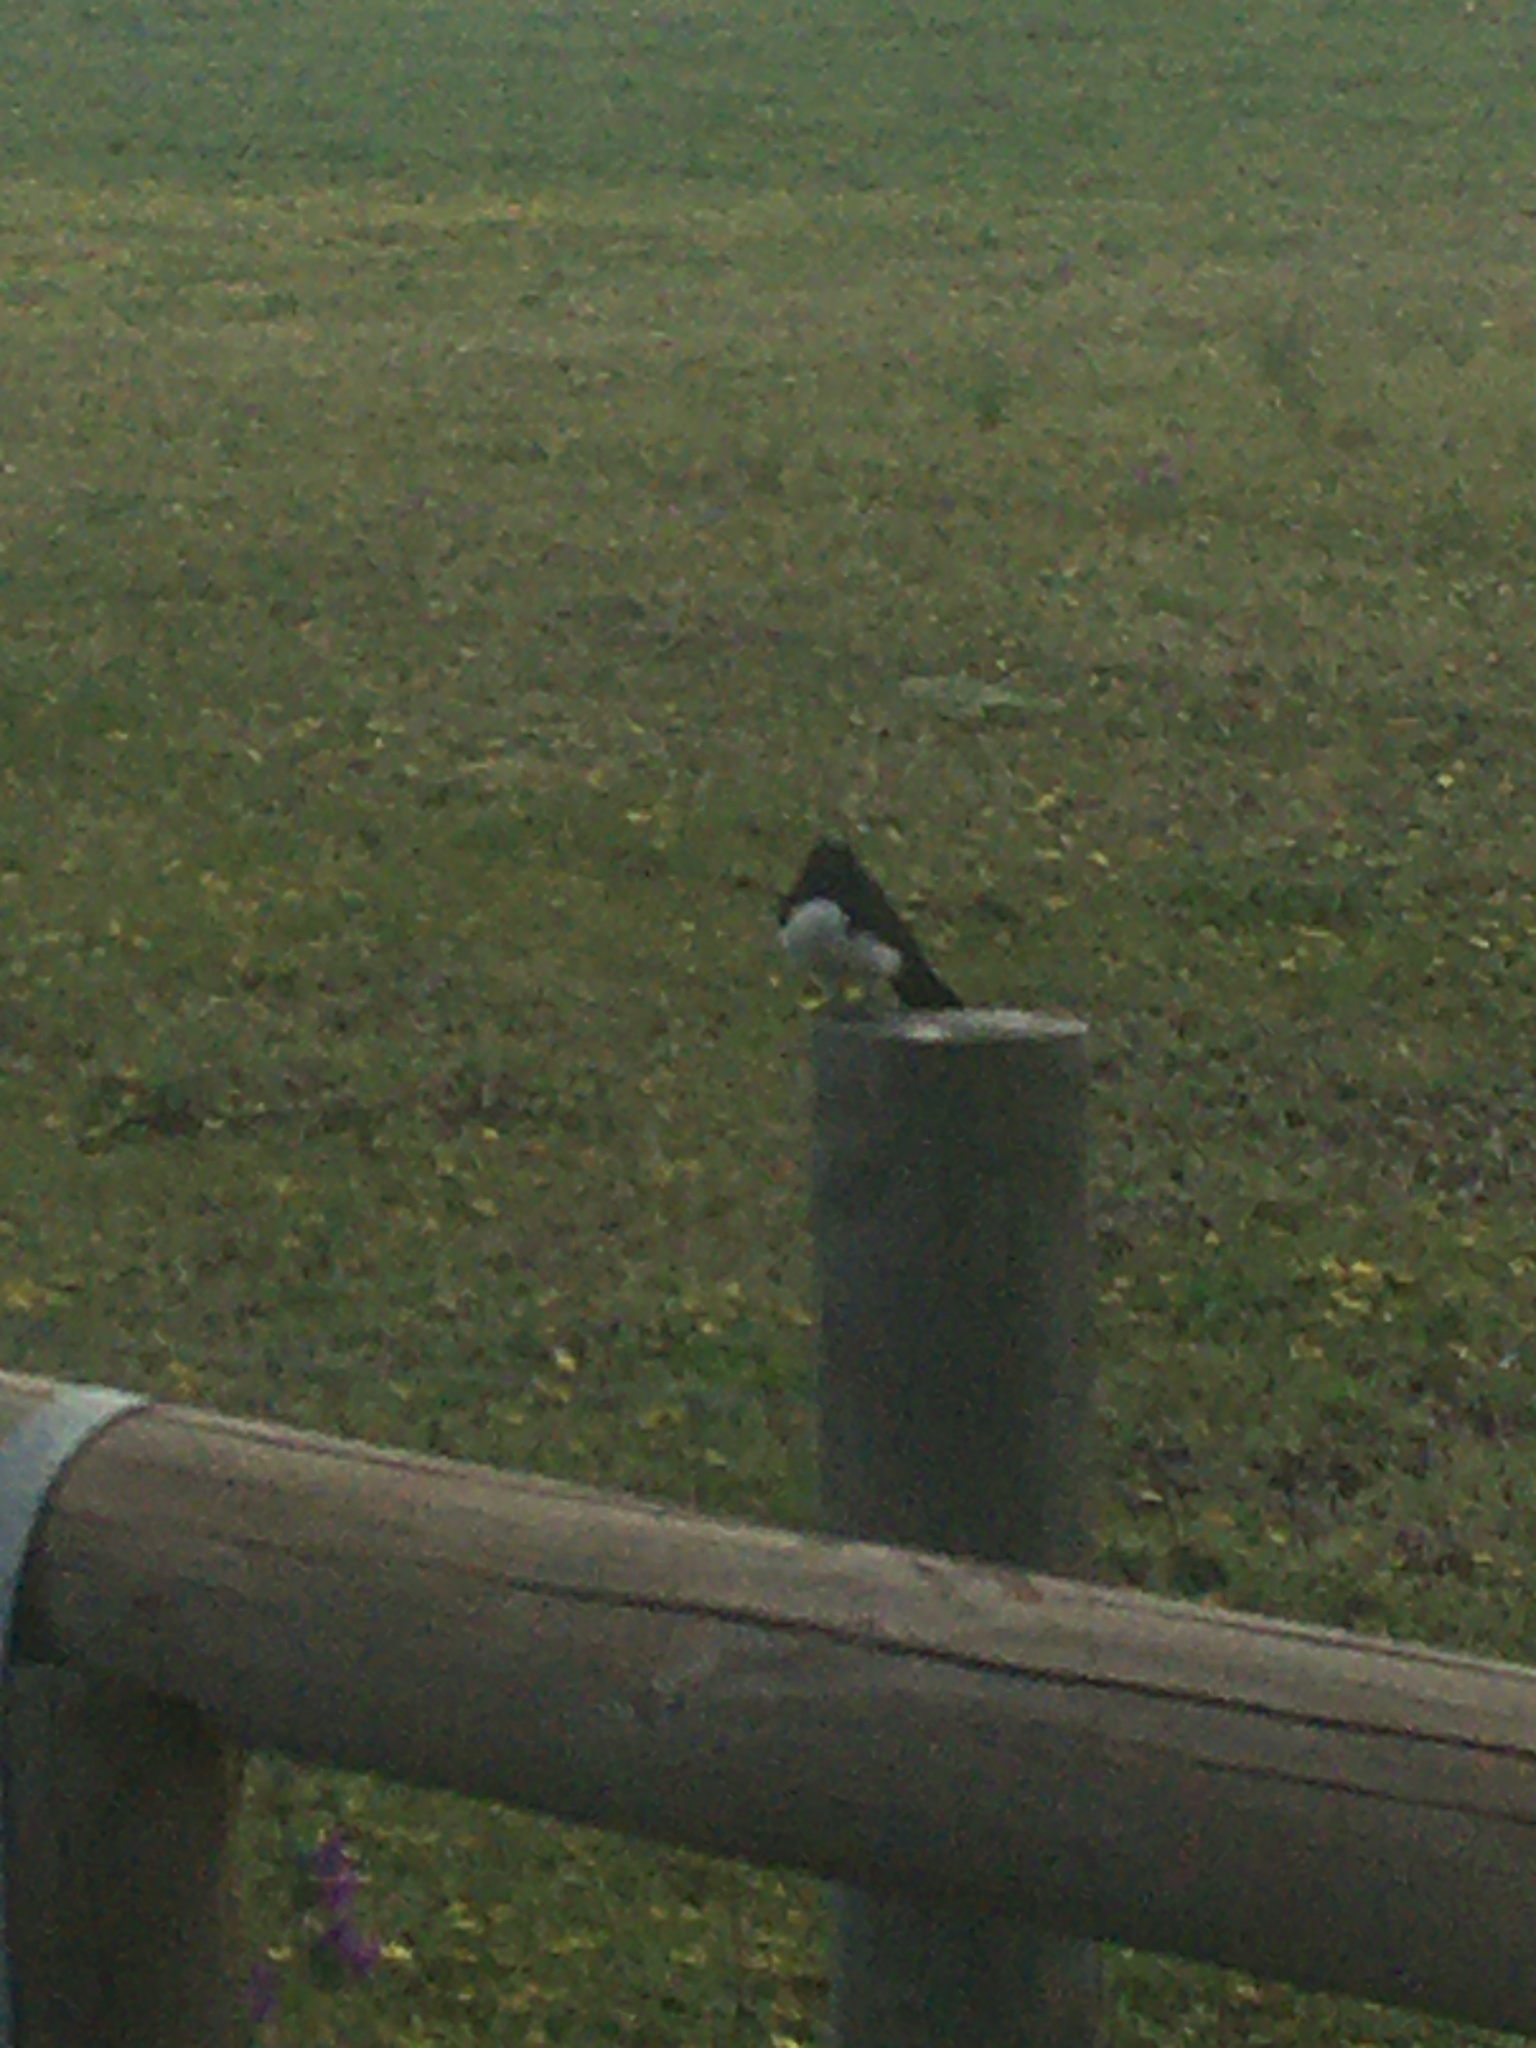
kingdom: Animalia
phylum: Chordata
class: Aves
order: Passeriformes
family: Rhipiduridae
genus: Rhipidura
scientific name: Rhipidura leucophrys
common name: Willie wagtail
